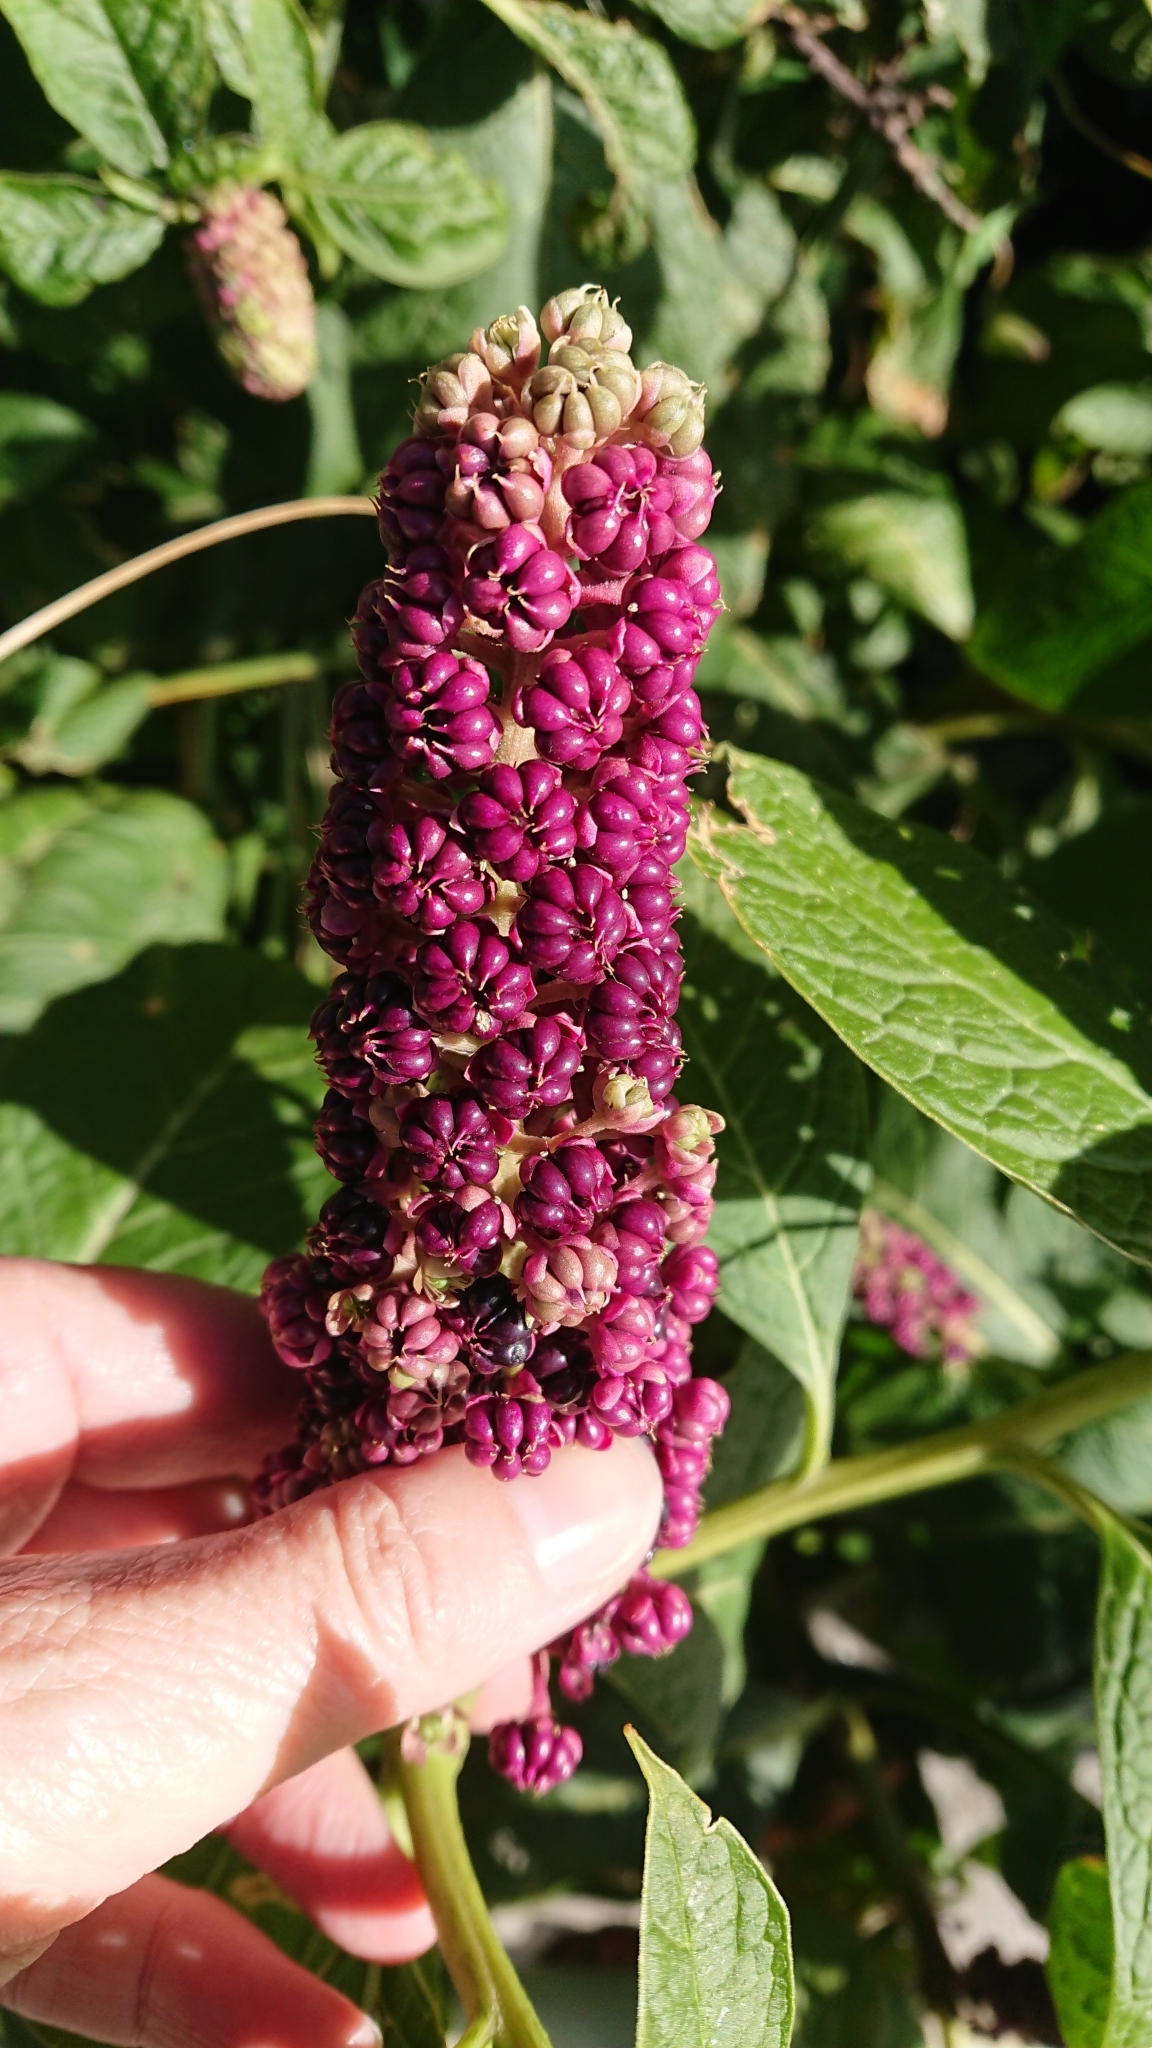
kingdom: Plantae
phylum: Tracheophyta
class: Magnoliopsida
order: Caryophyllales
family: Phytolaccaceae
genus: Phytolacca
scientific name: Phytolacca acinosa
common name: Indian pokeweed
